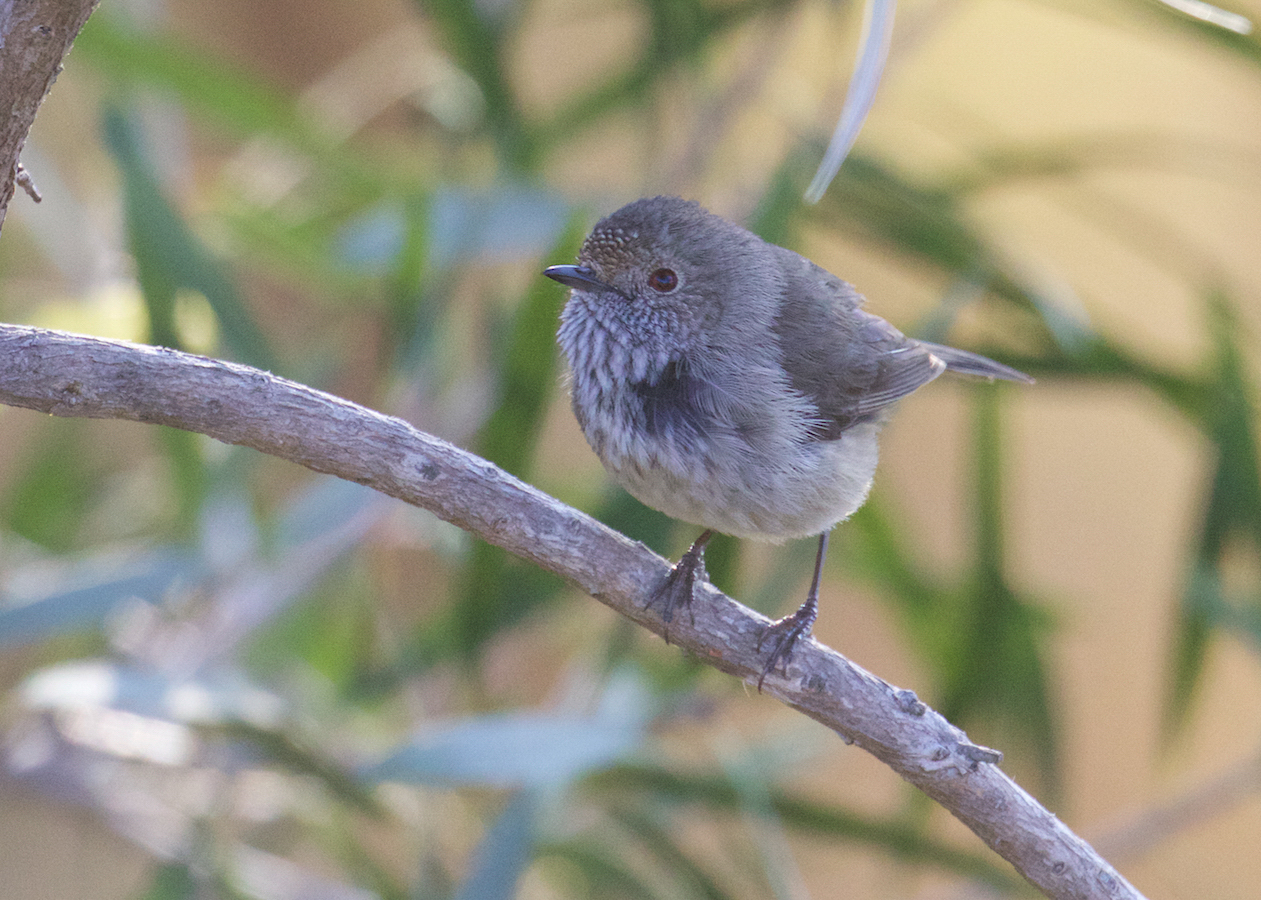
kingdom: Animalia
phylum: Chordata
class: Aves
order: Passeriformes
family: Acanthizidae
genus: Acanthiza
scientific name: Acanthiza pusilla
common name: Brown thornbill
